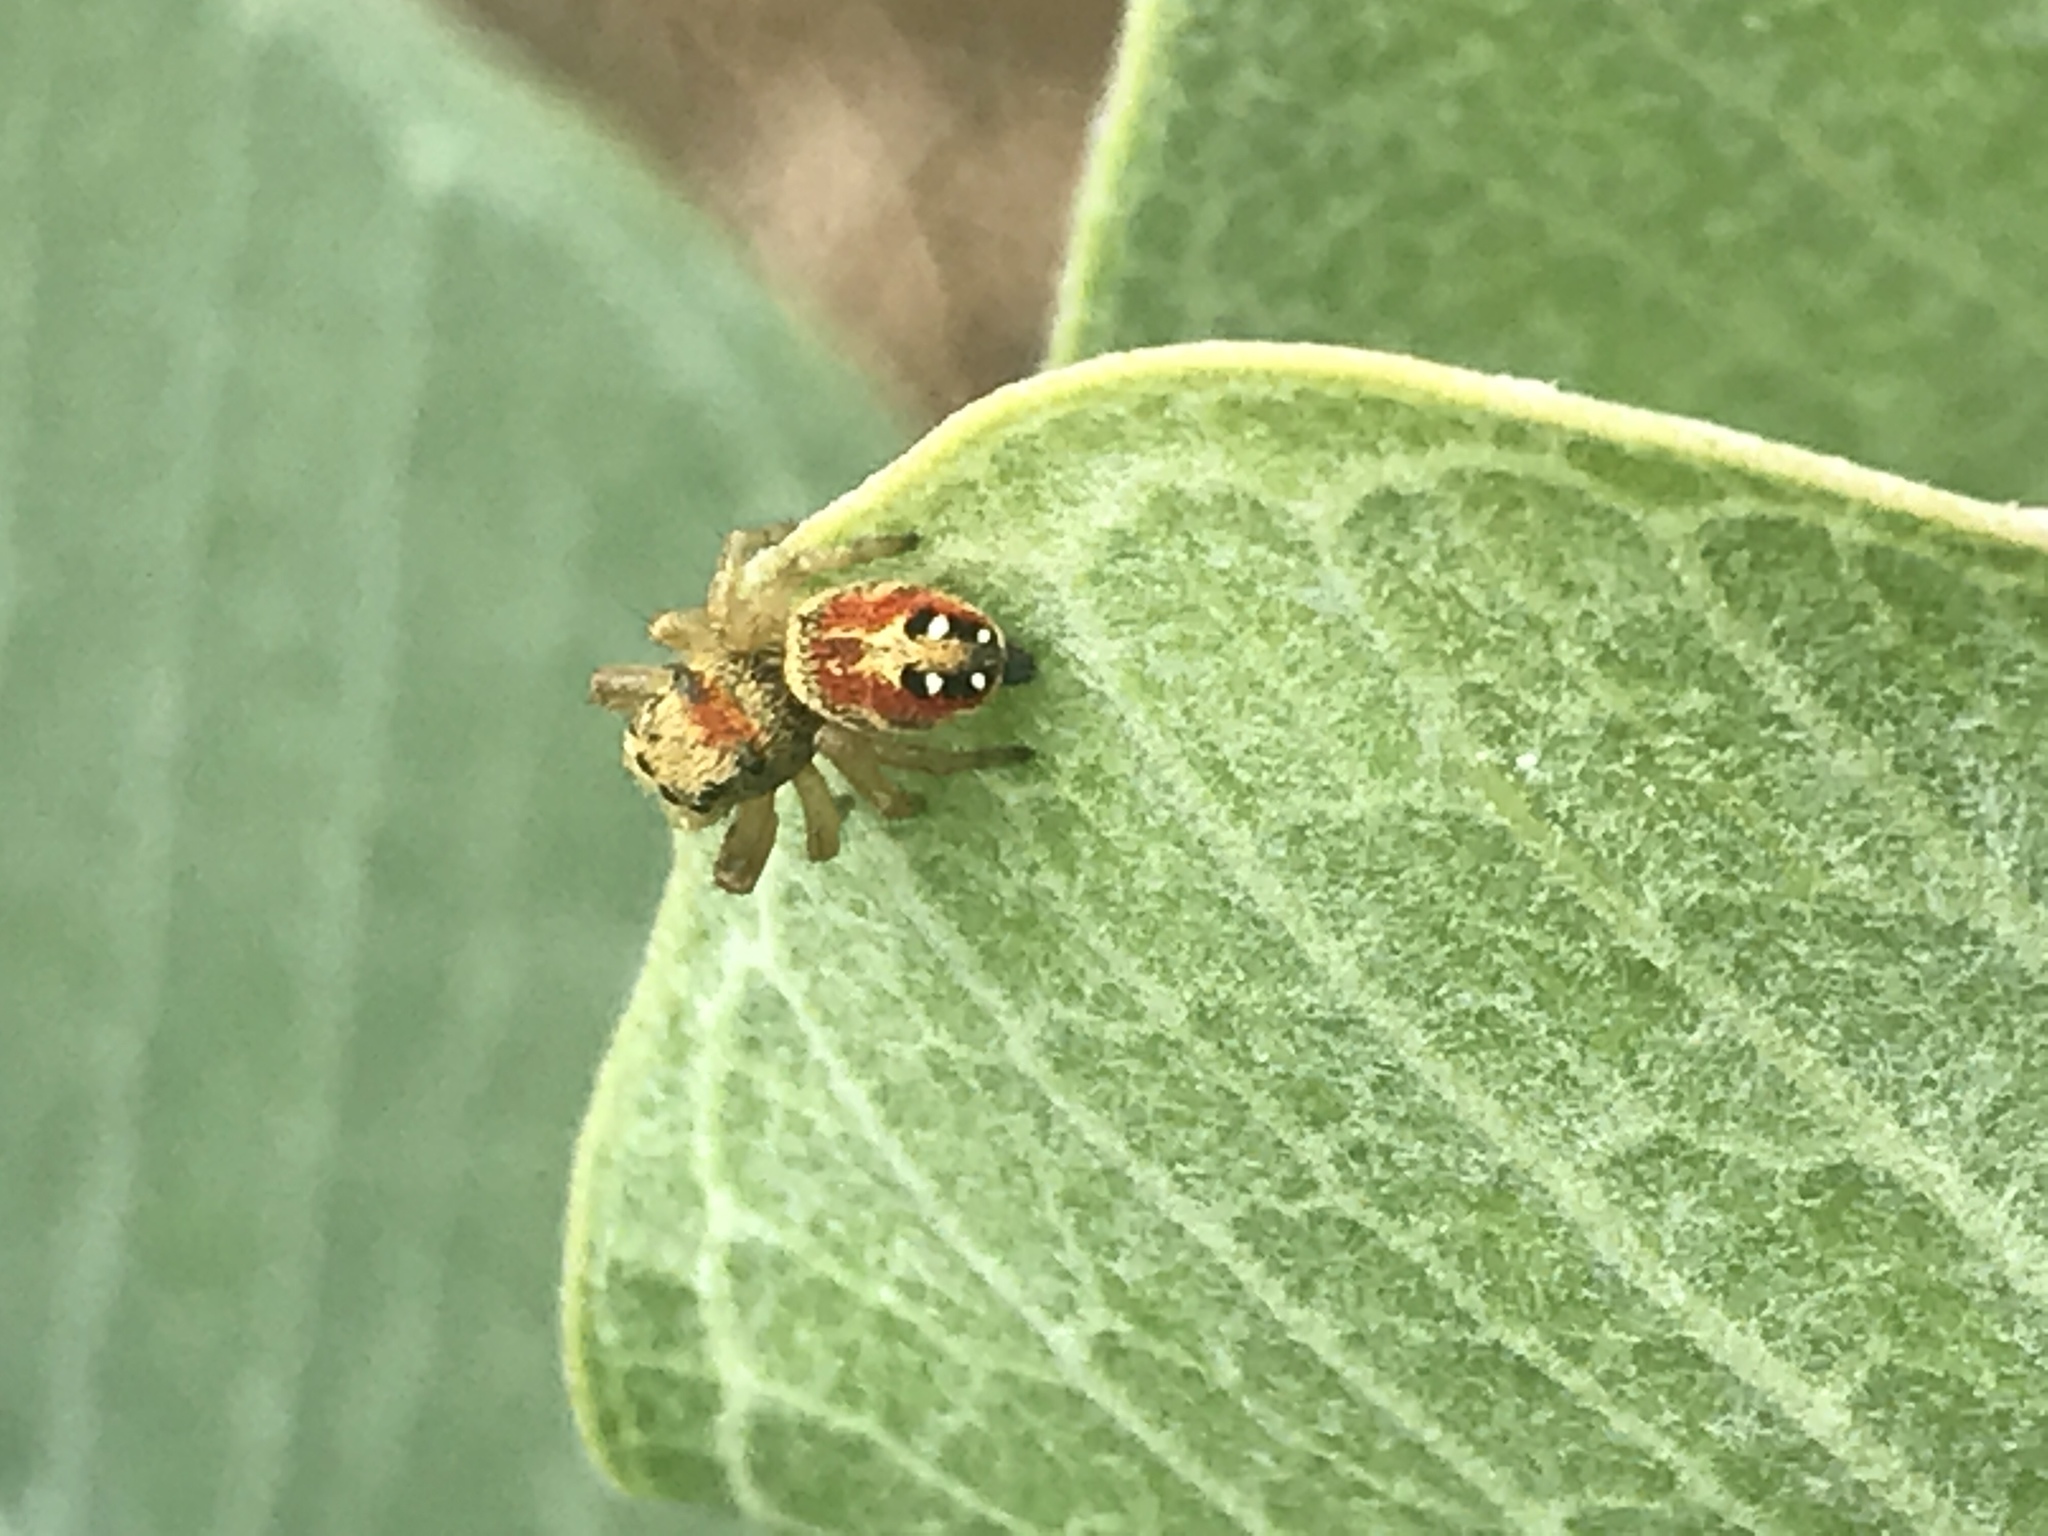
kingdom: Animalia
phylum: Arthropoda
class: Arachnida
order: Araneae
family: Salticidae
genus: Phidippus
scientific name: Phidippus apacheanus
